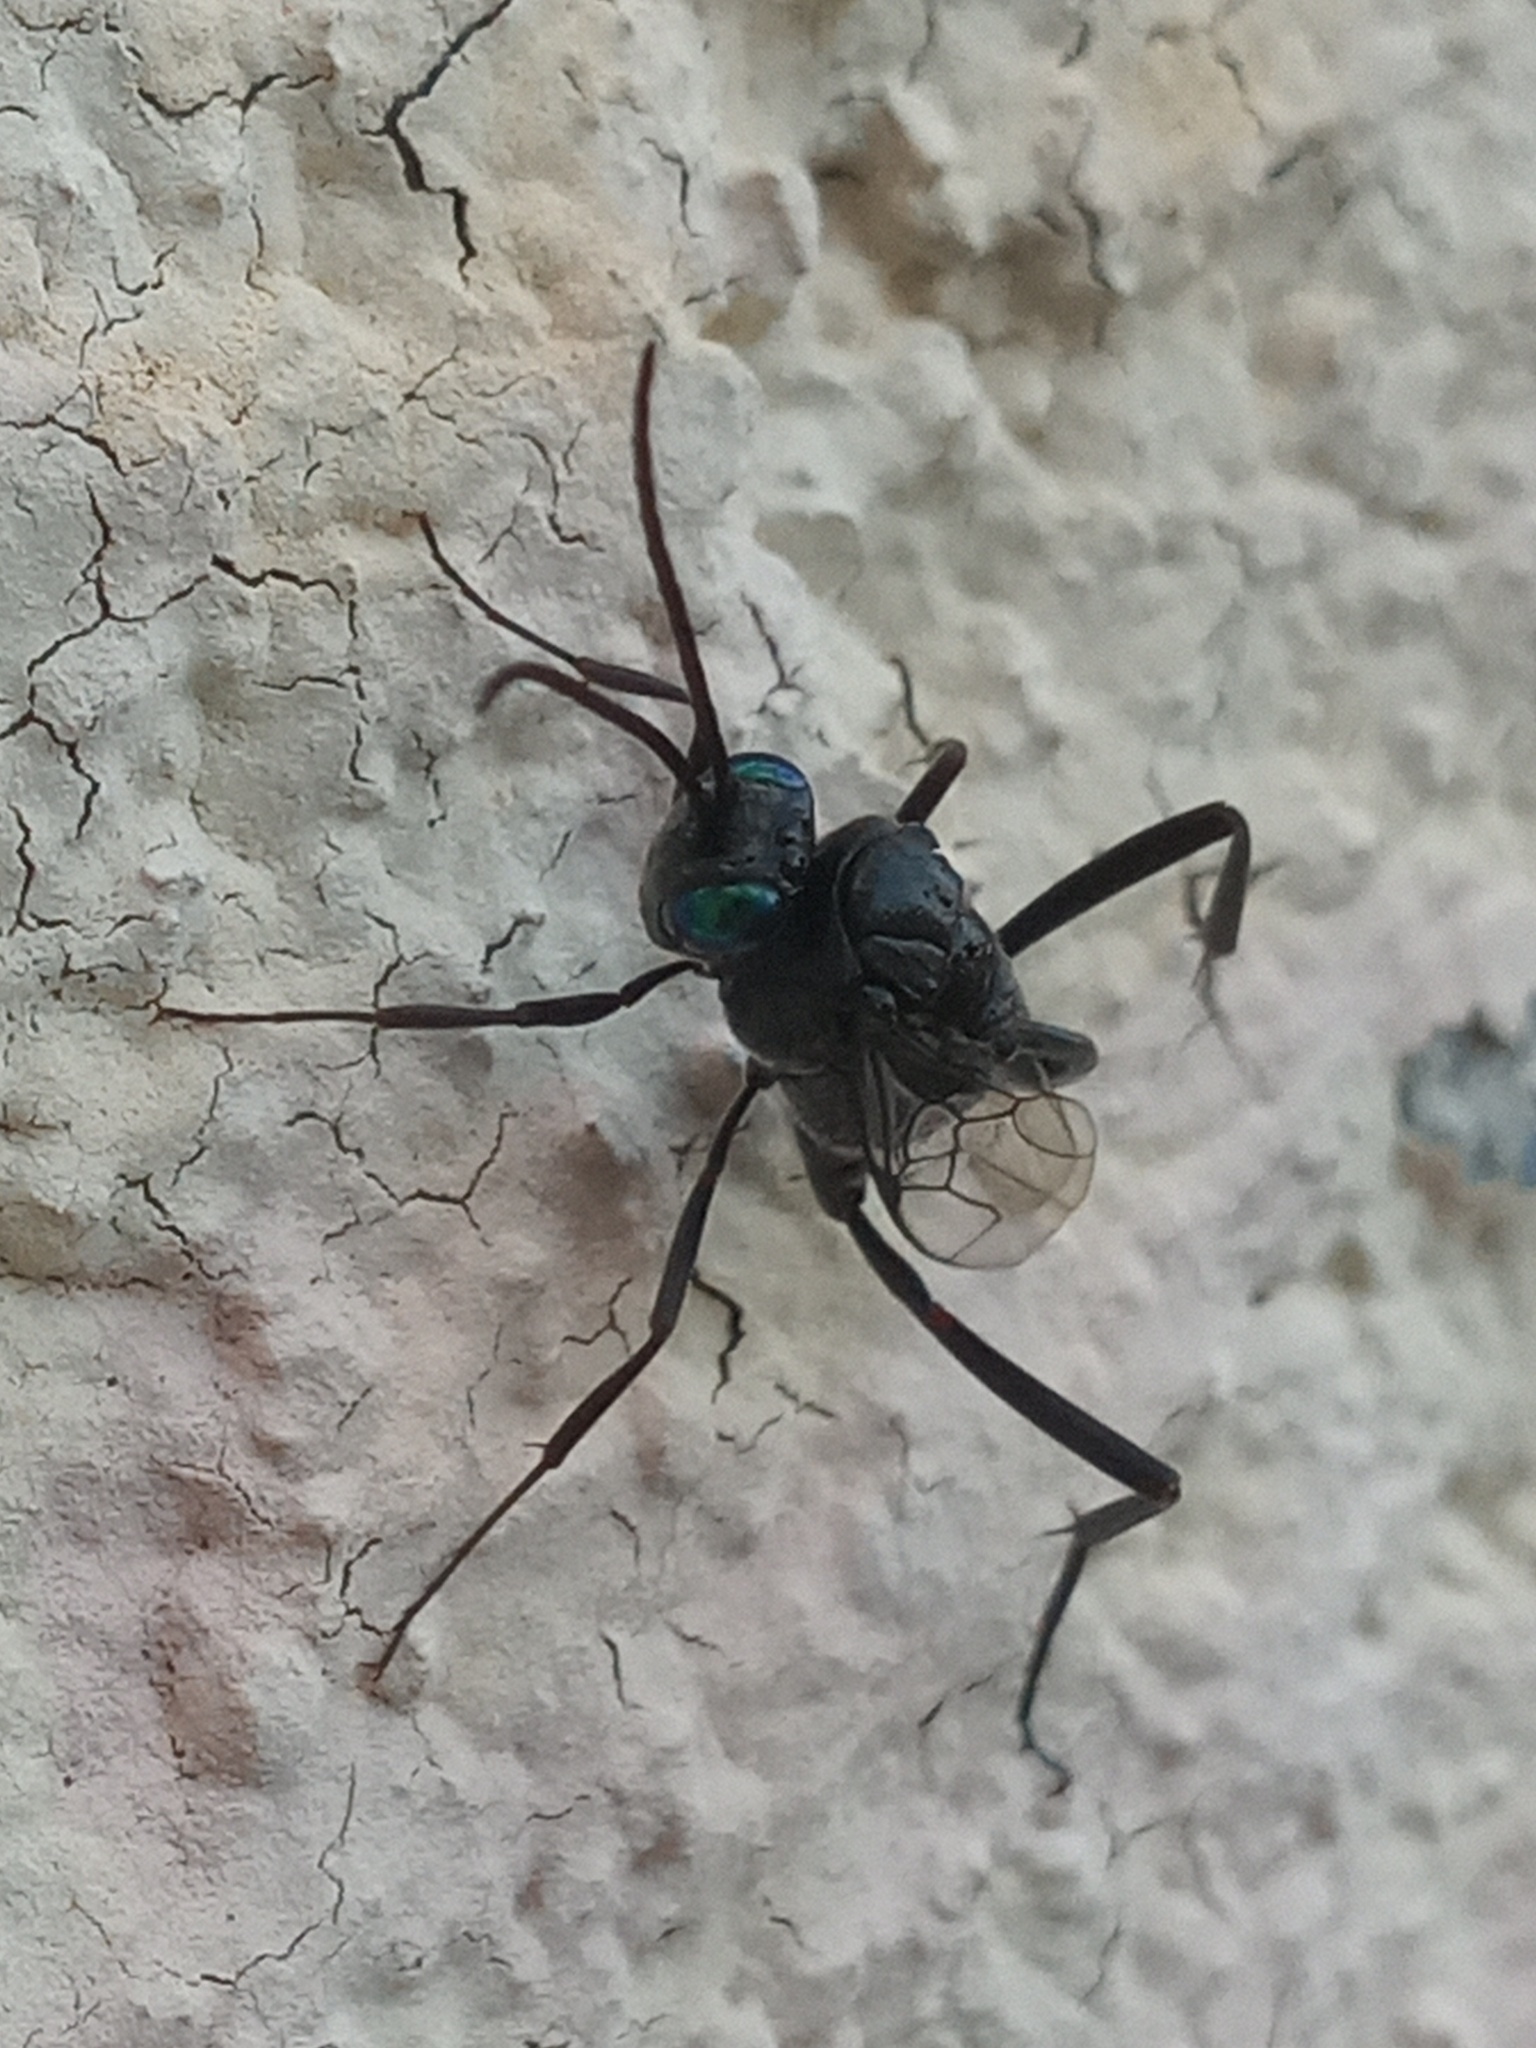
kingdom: Animalia
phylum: Arthropoda
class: Insecta
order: Hymenoptera
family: Evaniidae
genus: Evania
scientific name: Evania appendigaster
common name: Ensign wasp
